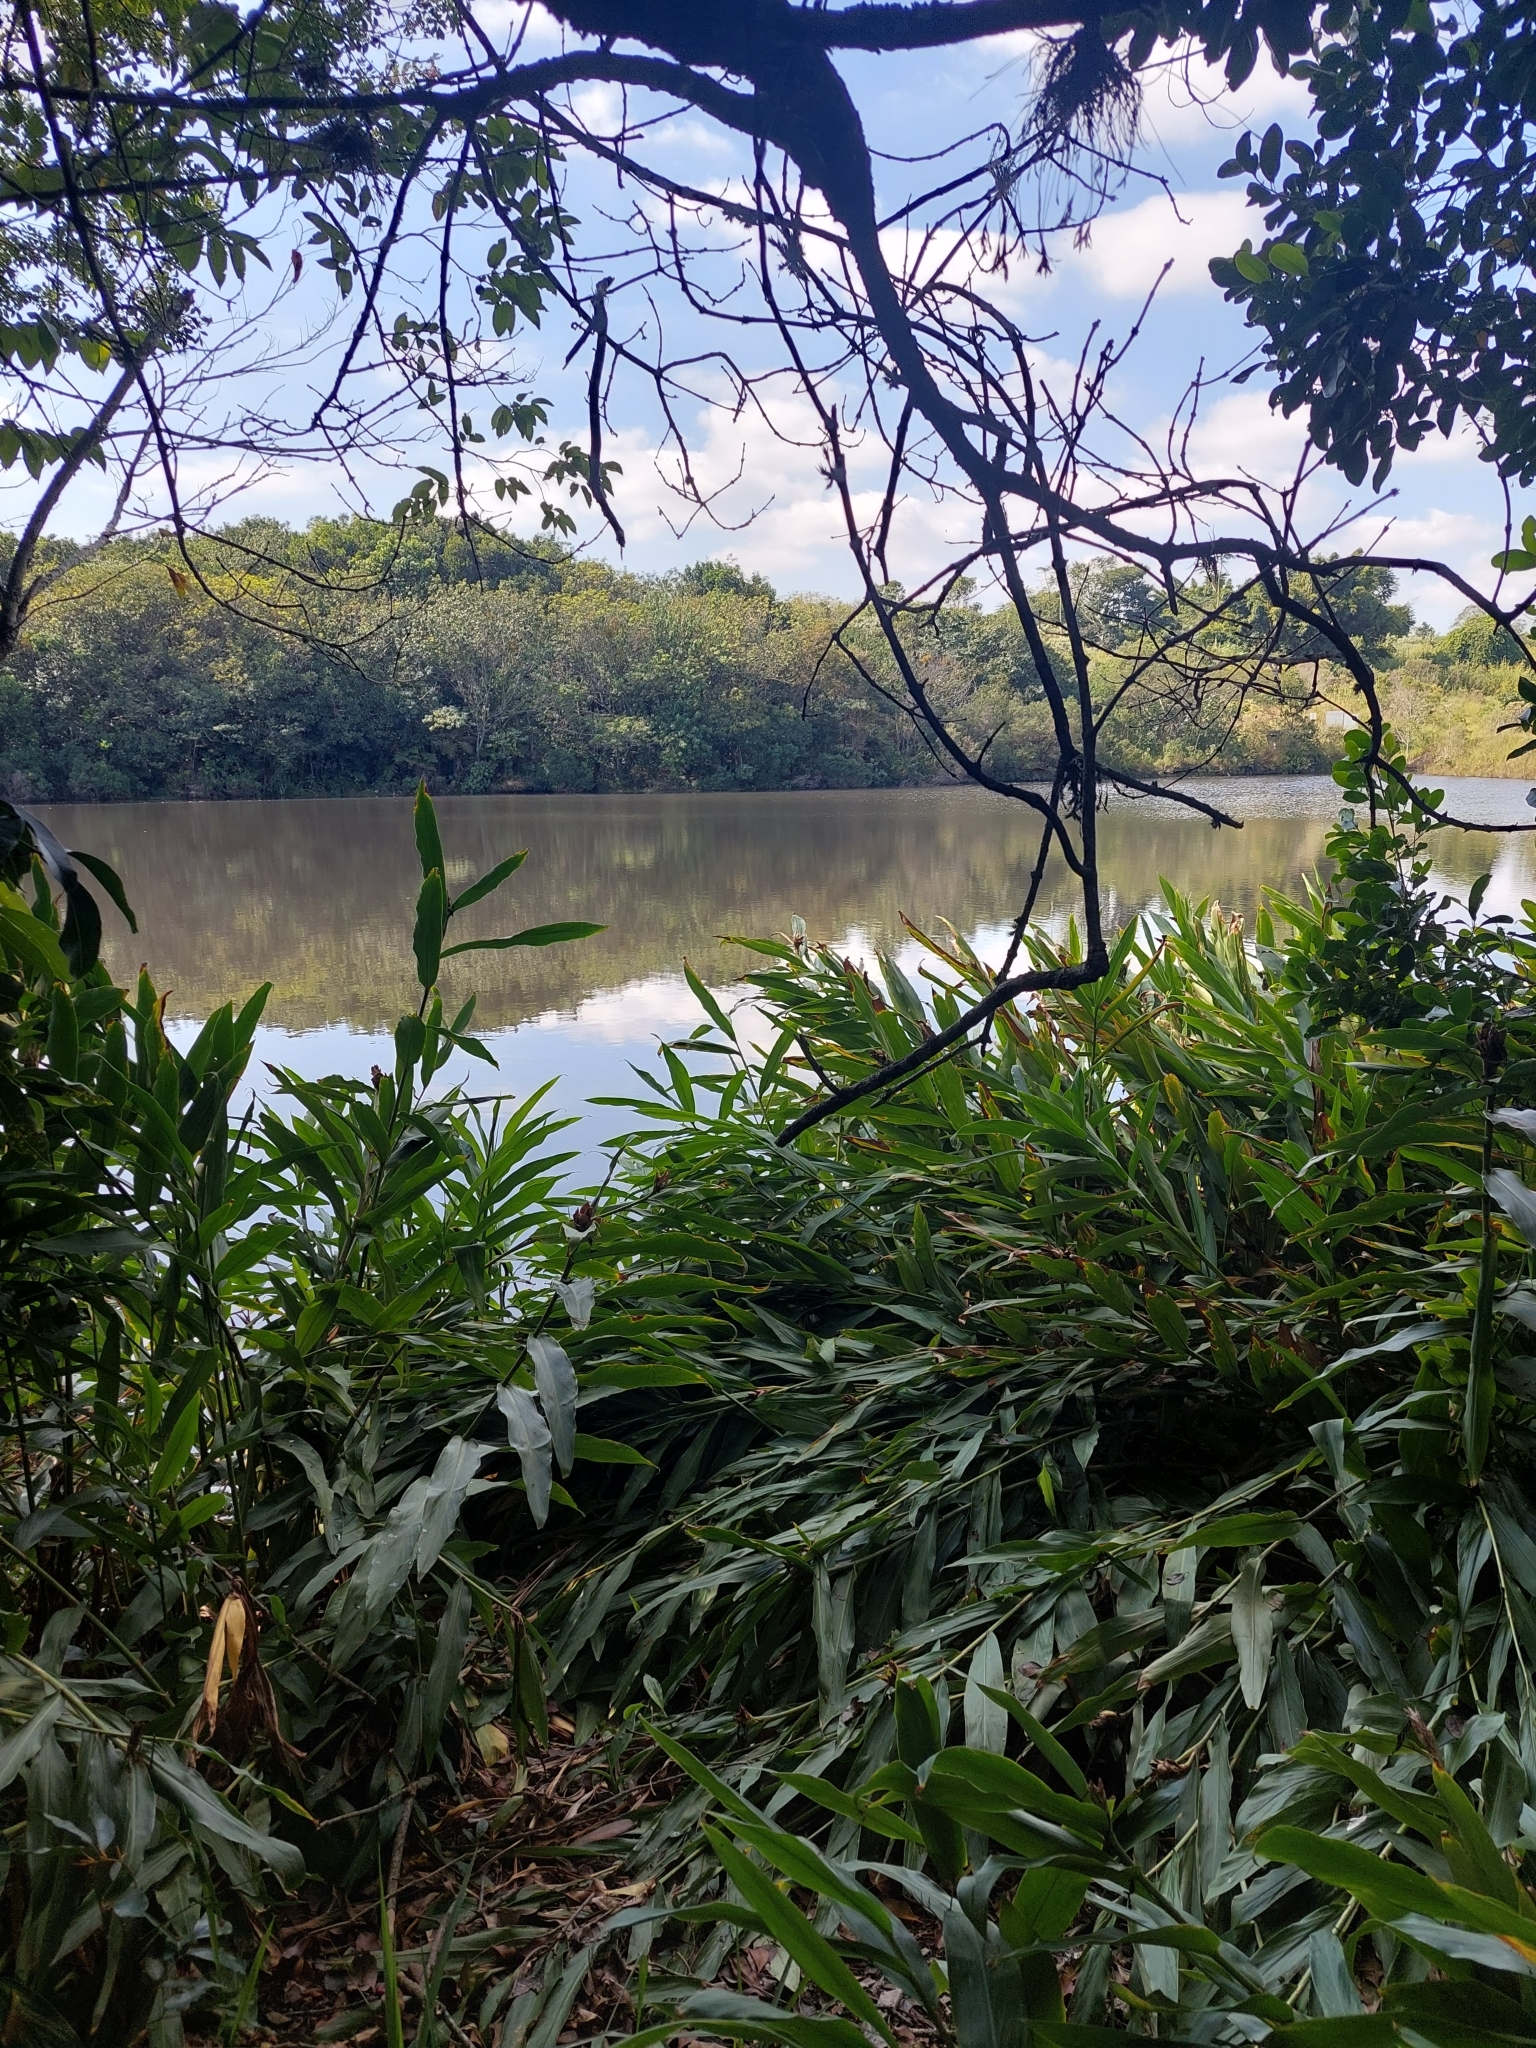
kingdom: Plantae
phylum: Tracheophyta
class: Liliopsida
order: Zingiberales
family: Zingiberaceae
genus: Hedychium
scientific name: Hedychium coronarium
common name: White garland-lily
